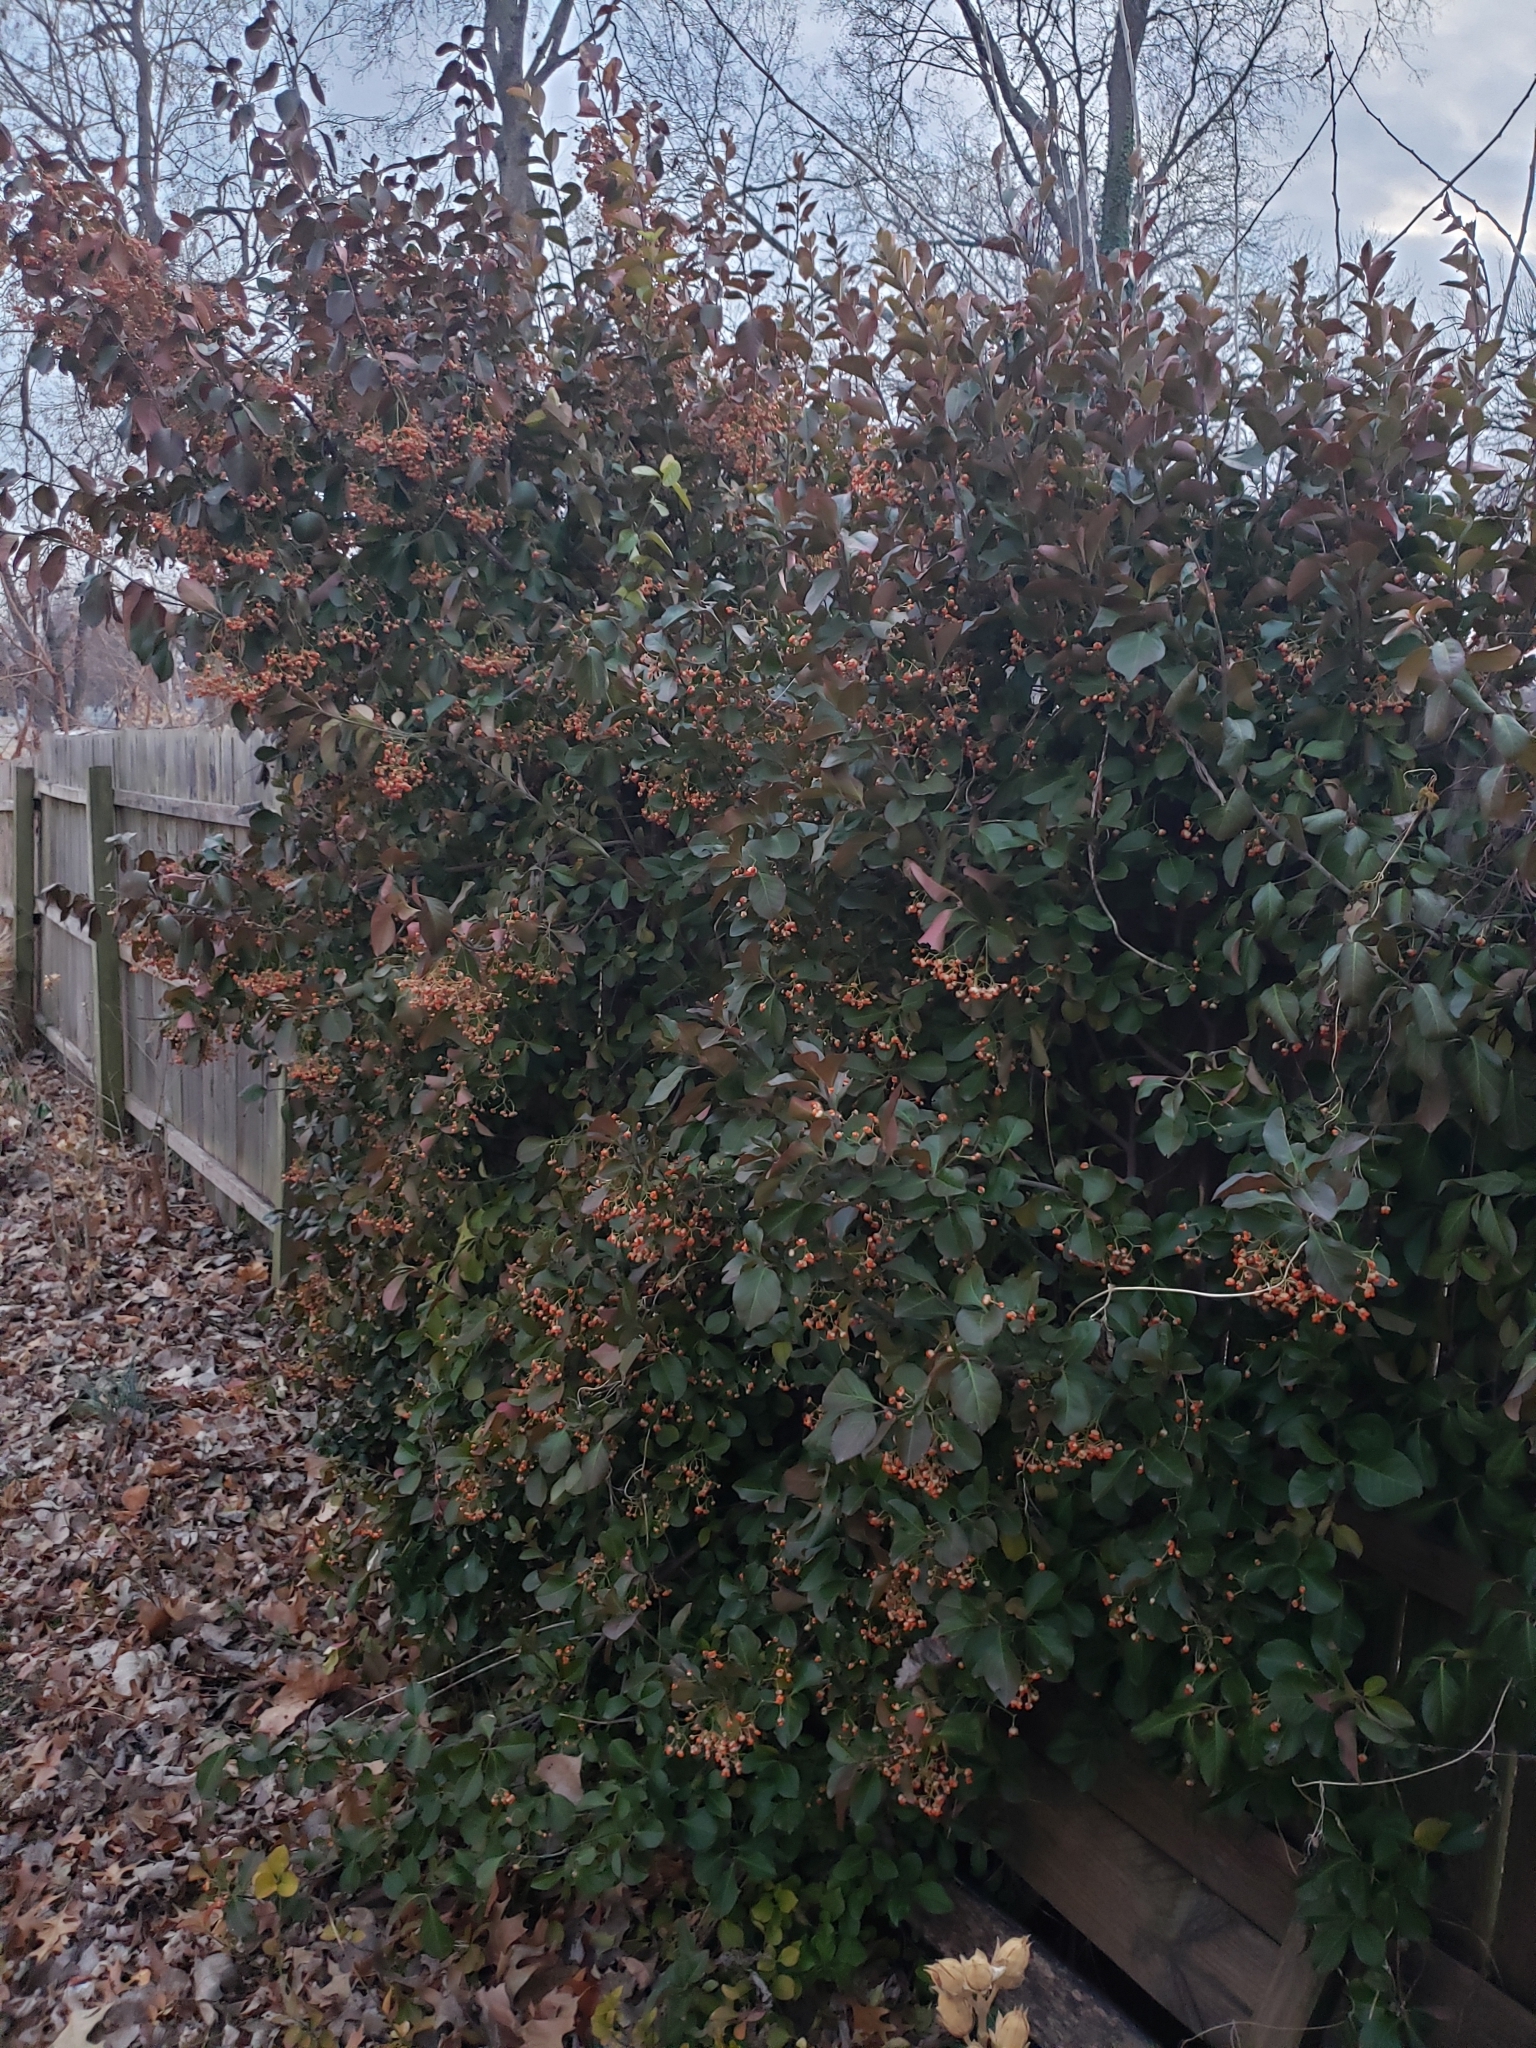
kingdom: Plantae
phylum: Tracheophyta
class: Magnoliopsida
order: Celastrales
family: Celastraceae
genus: Euonymus
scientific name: Euonymus fortunei
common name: Climbing euonymus
